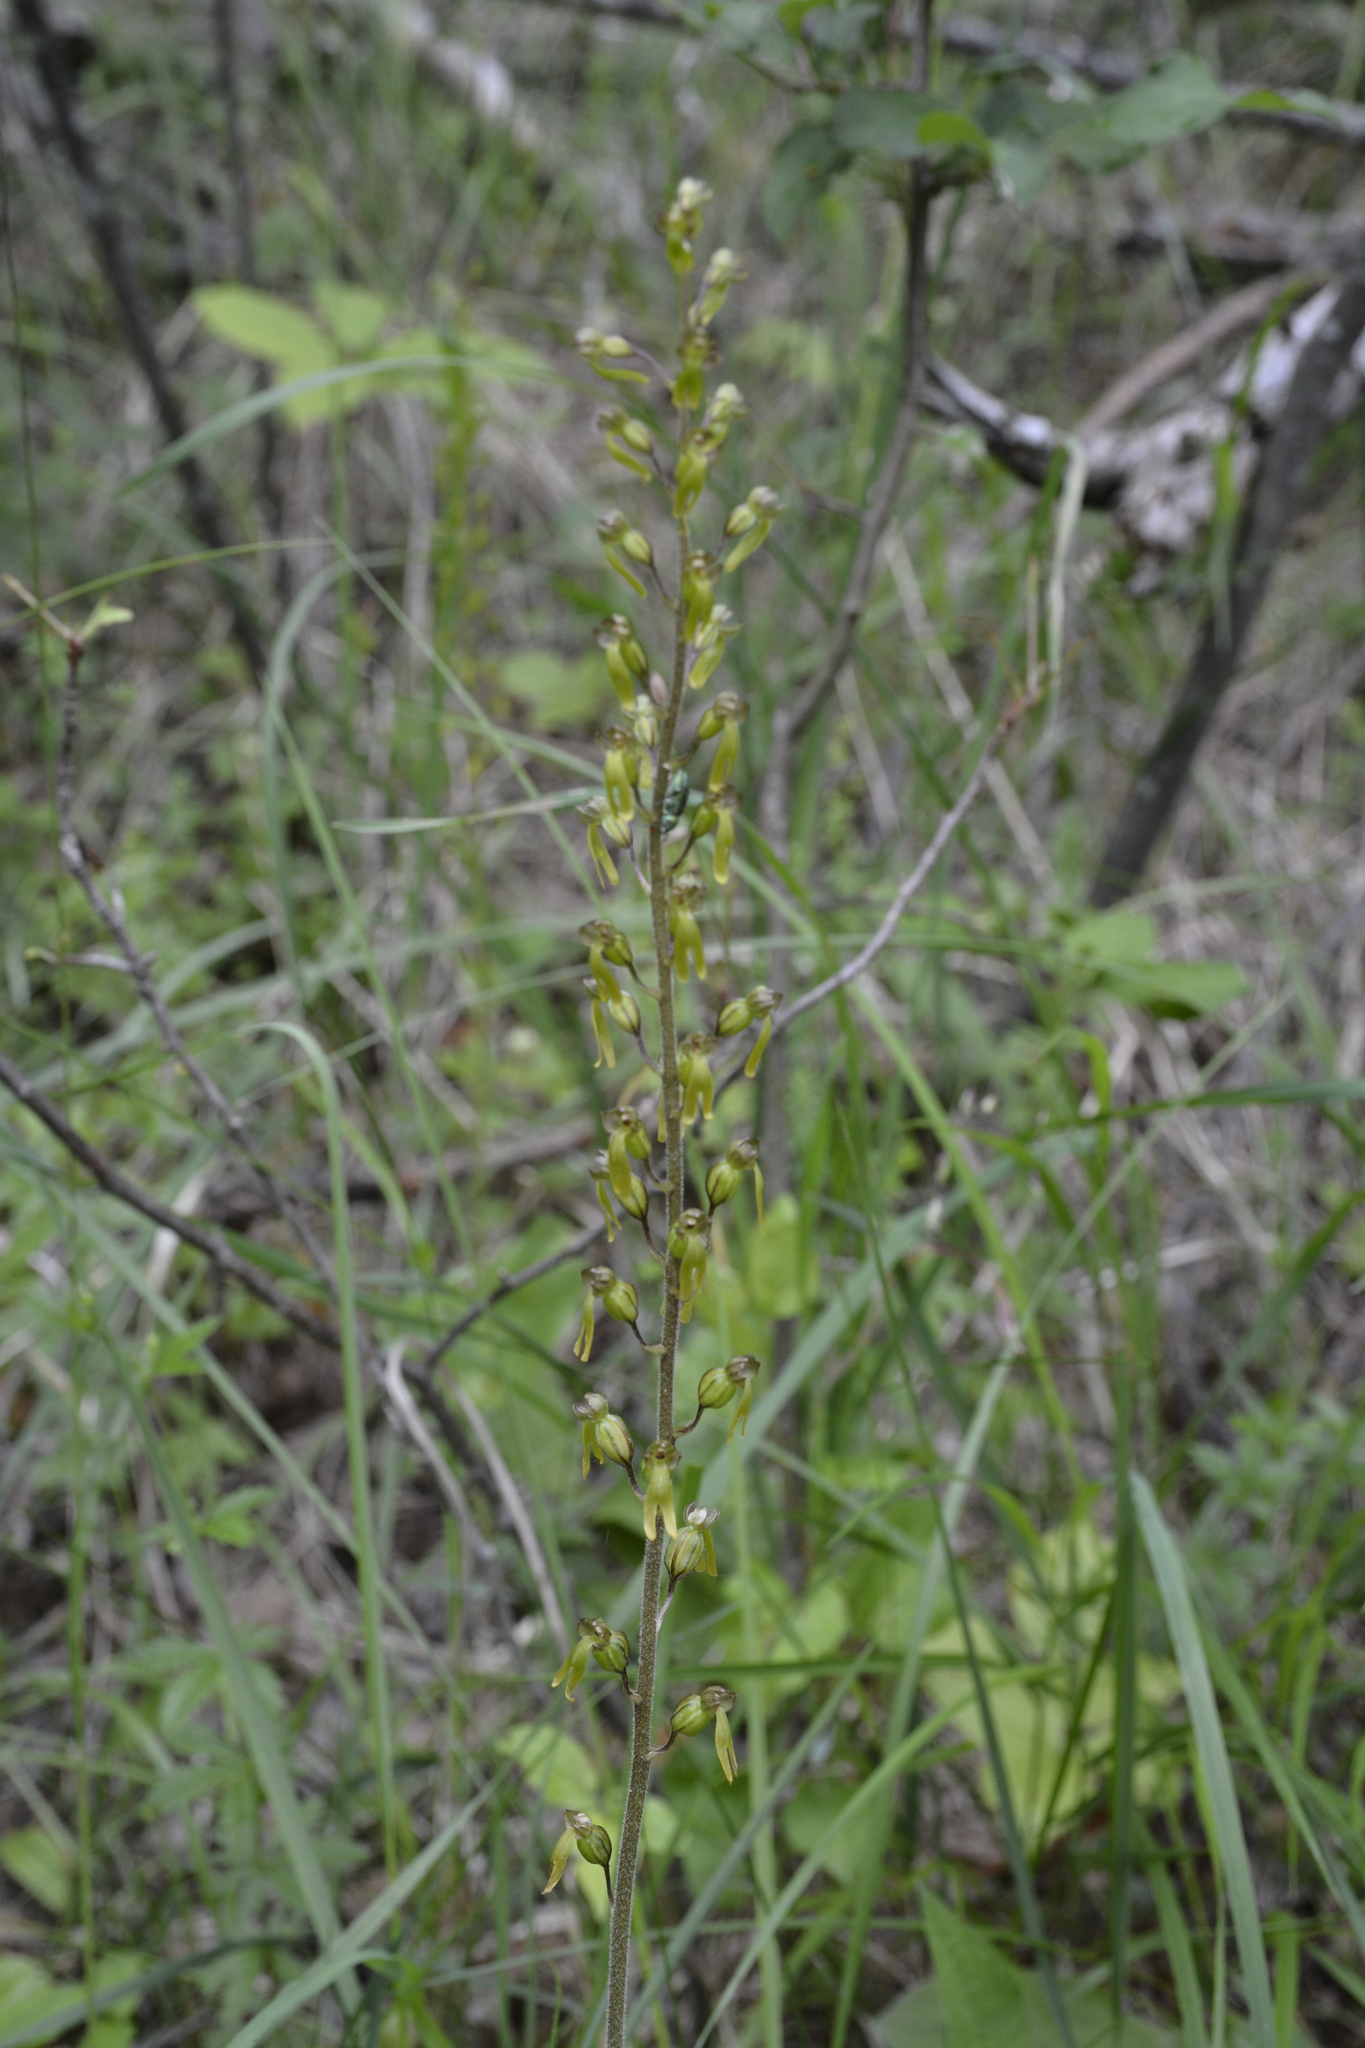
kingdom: Plantae
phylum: Tracheophyta
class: Liliopsida
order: Asparagales
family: Orchidaceae
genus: Neottia
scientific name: Neottia ovata
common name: Common twayblade
